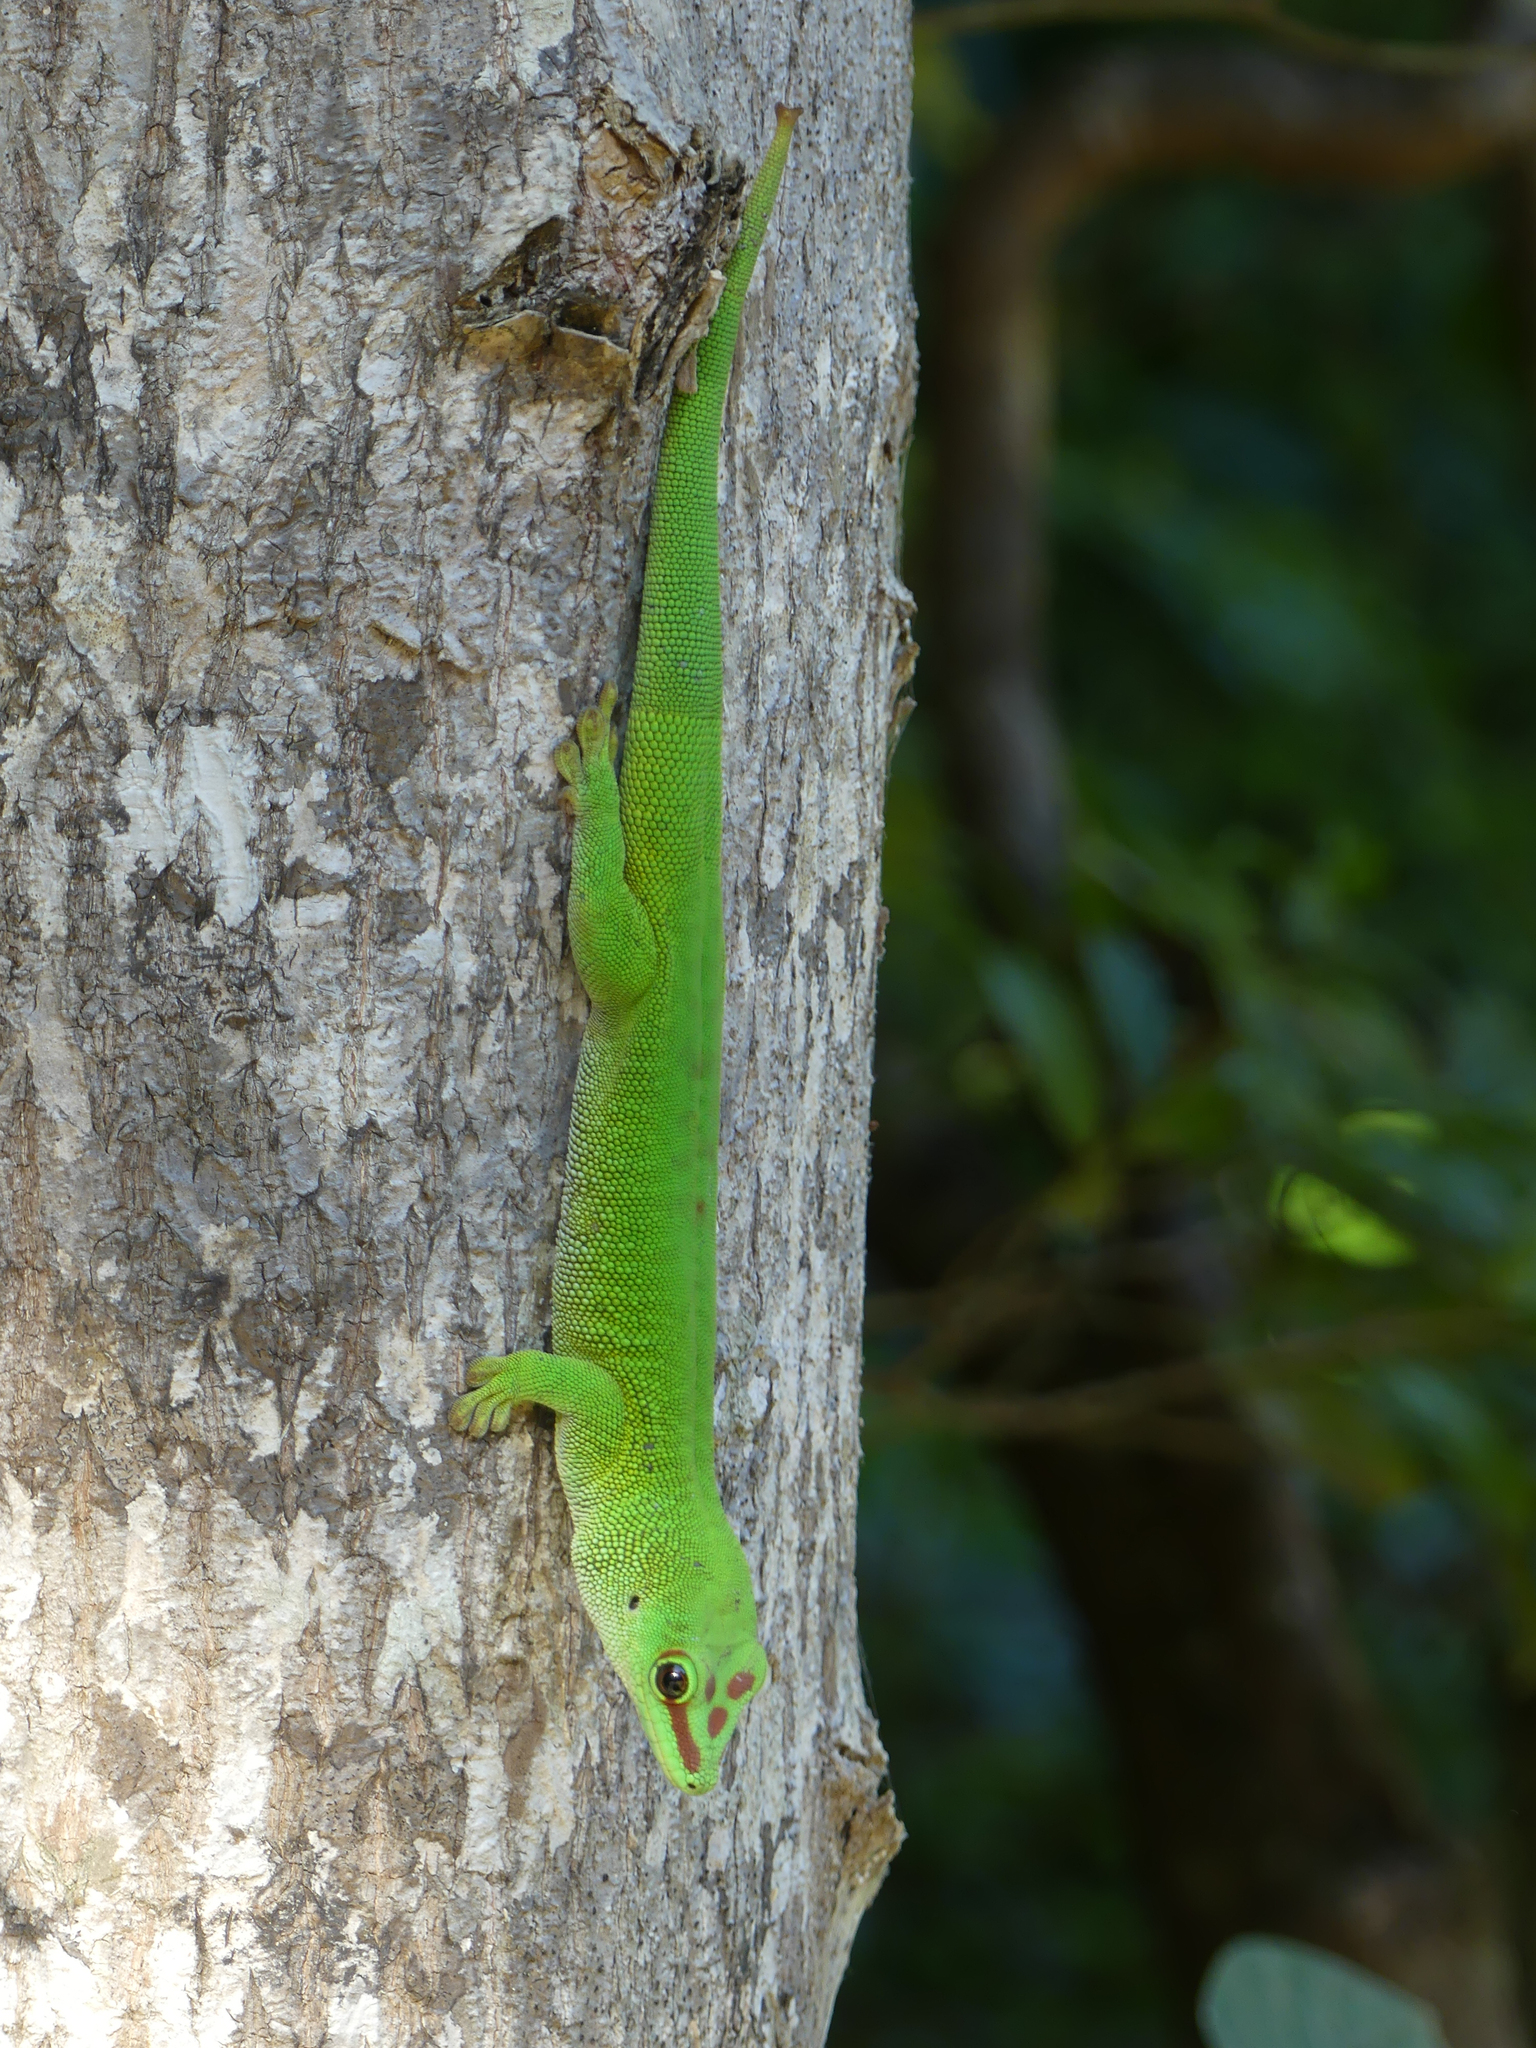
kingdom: Animalia
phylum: Chordata
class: Squamata
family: Gekkonidae
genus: Phelsuma
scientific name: Phelsuma grandis
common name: Madagascar giant day gecko
